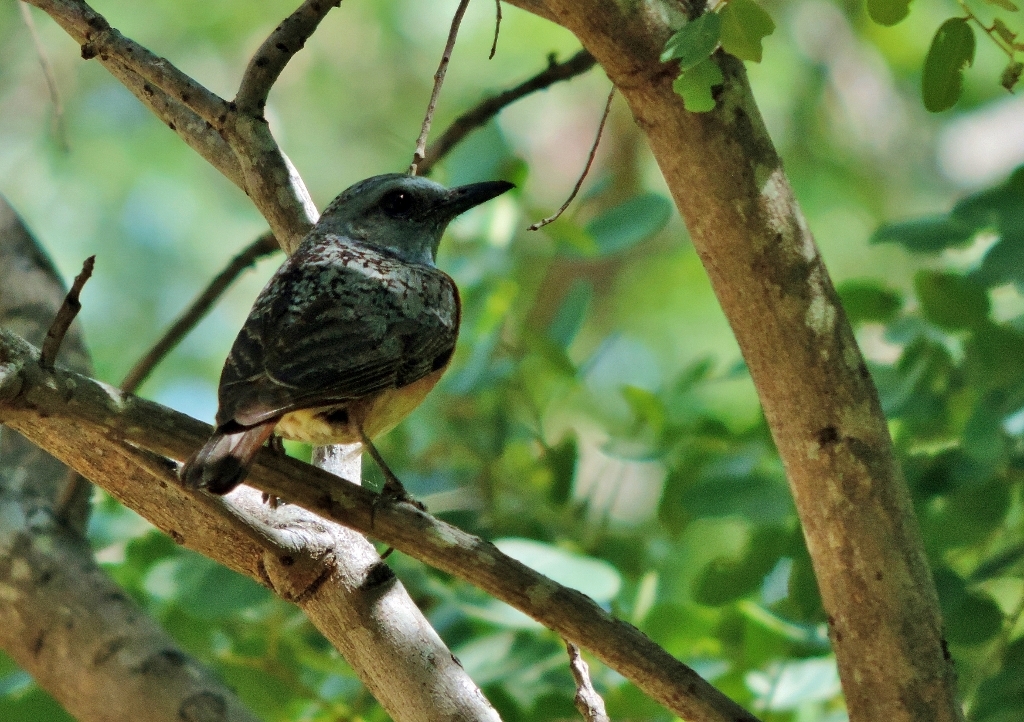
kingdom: Animalia
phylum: Chordata
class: Aves
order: Passeriformes
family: Muscicapidae
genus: Monticola
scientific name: Monticola angolensis
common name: Miombo rock thrush
